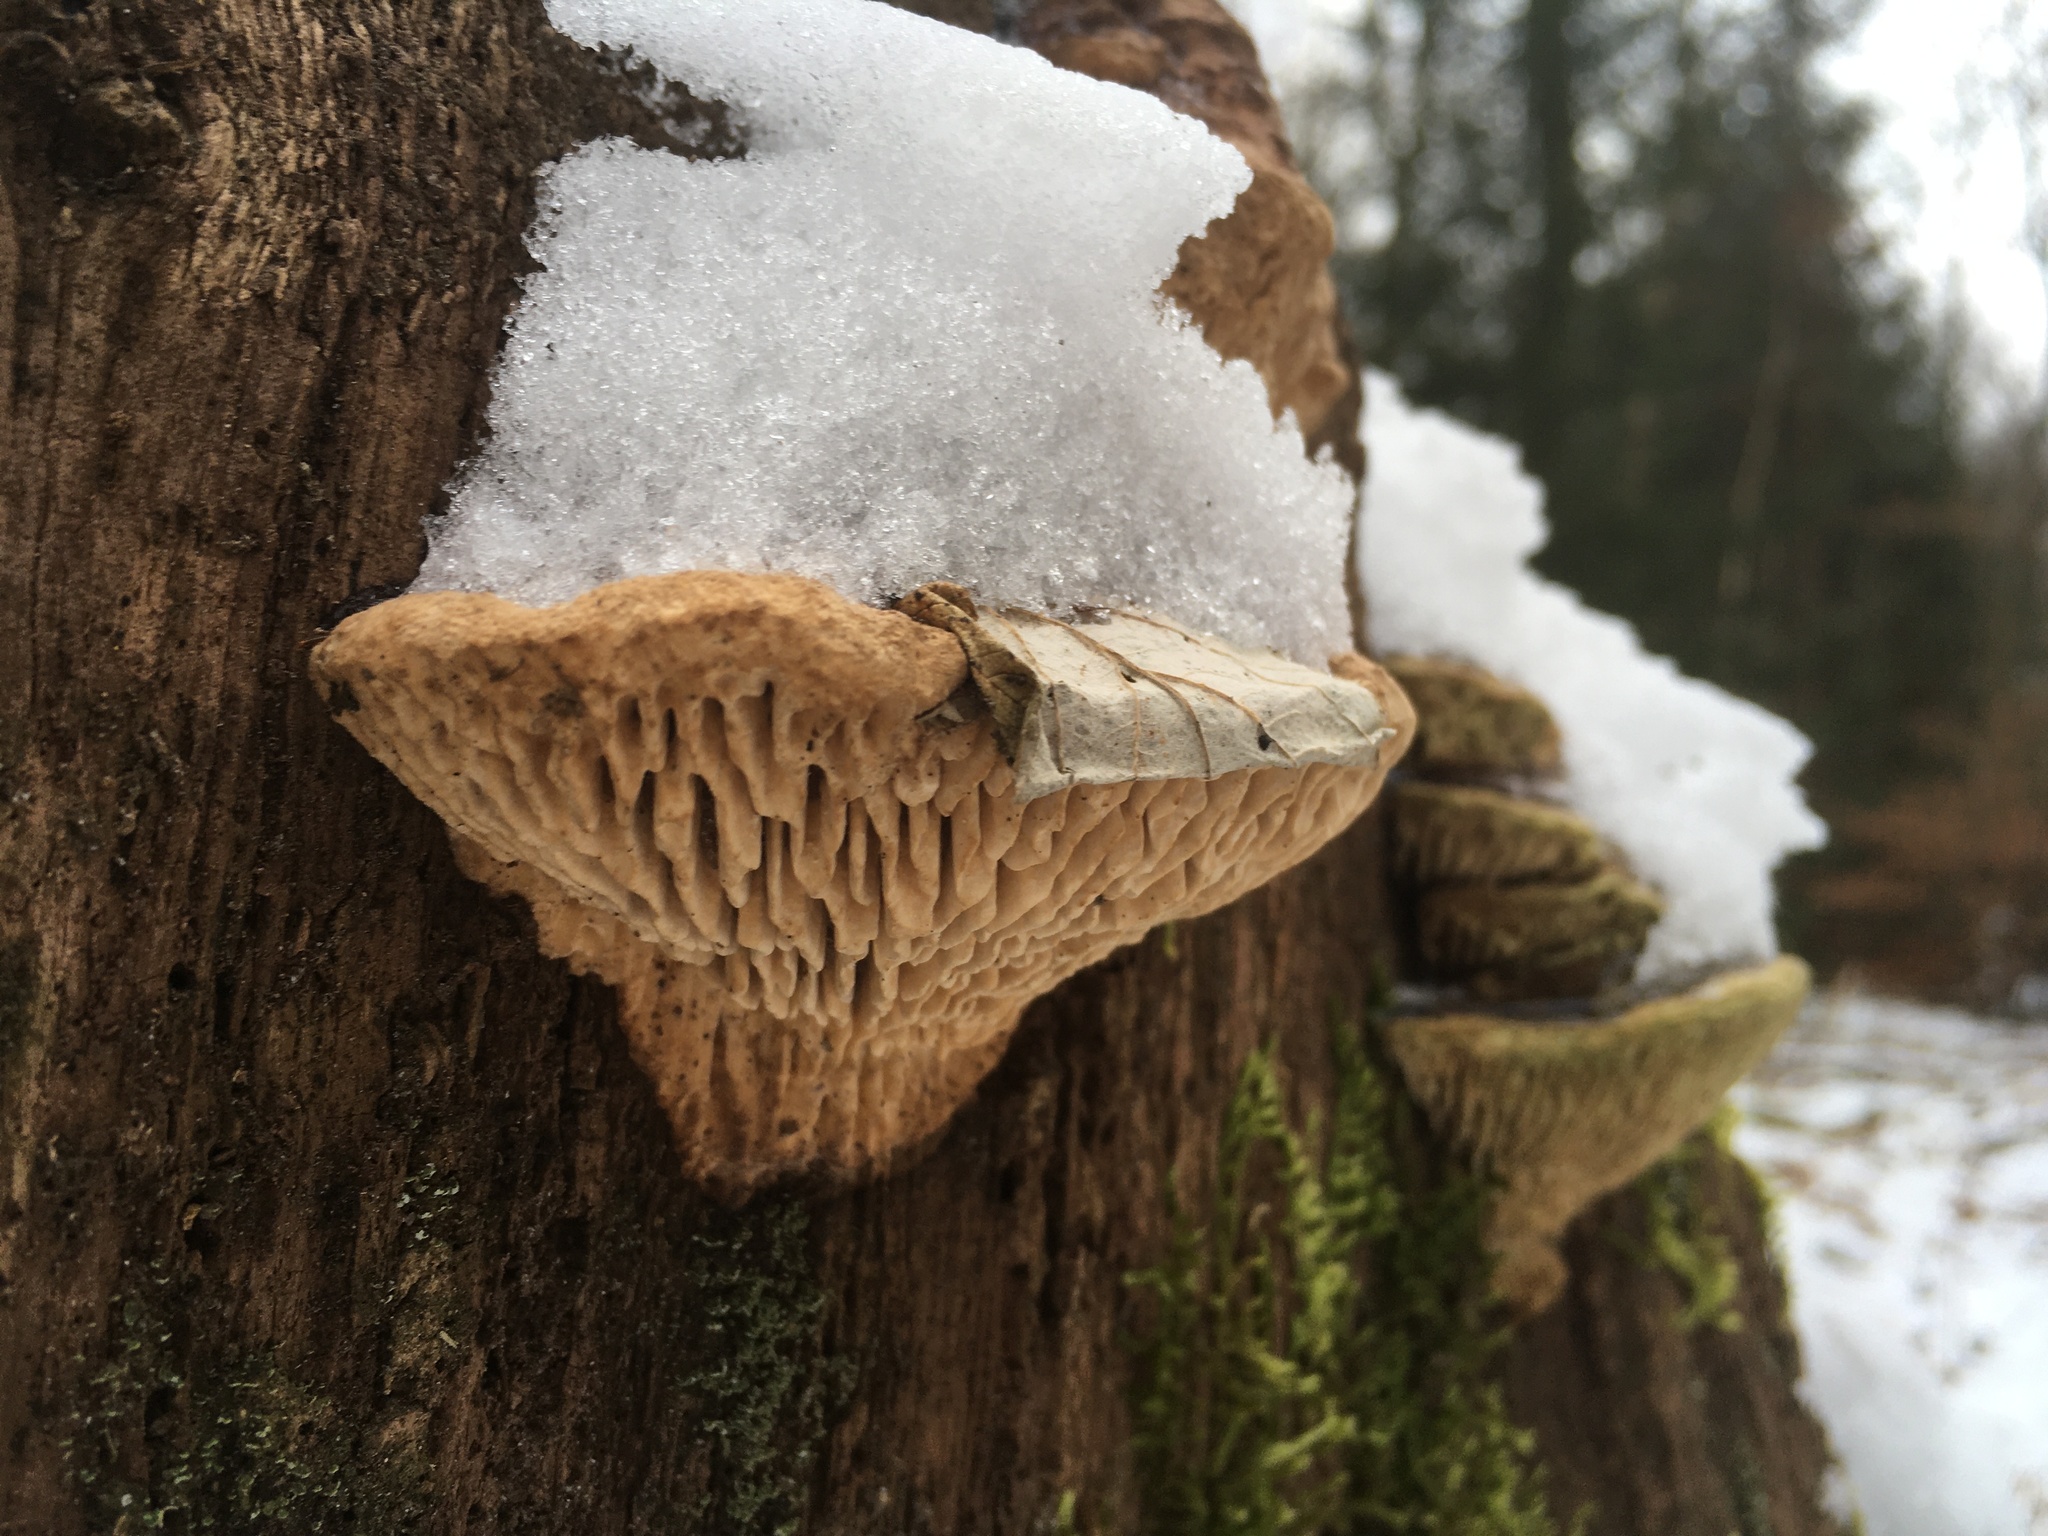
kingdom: Fungi
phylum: Basidiomycota
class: Agaricomycetes
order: Polyporales
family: Fomitopsidaceae
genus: Fomitopsis
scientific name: Fomitopsis
